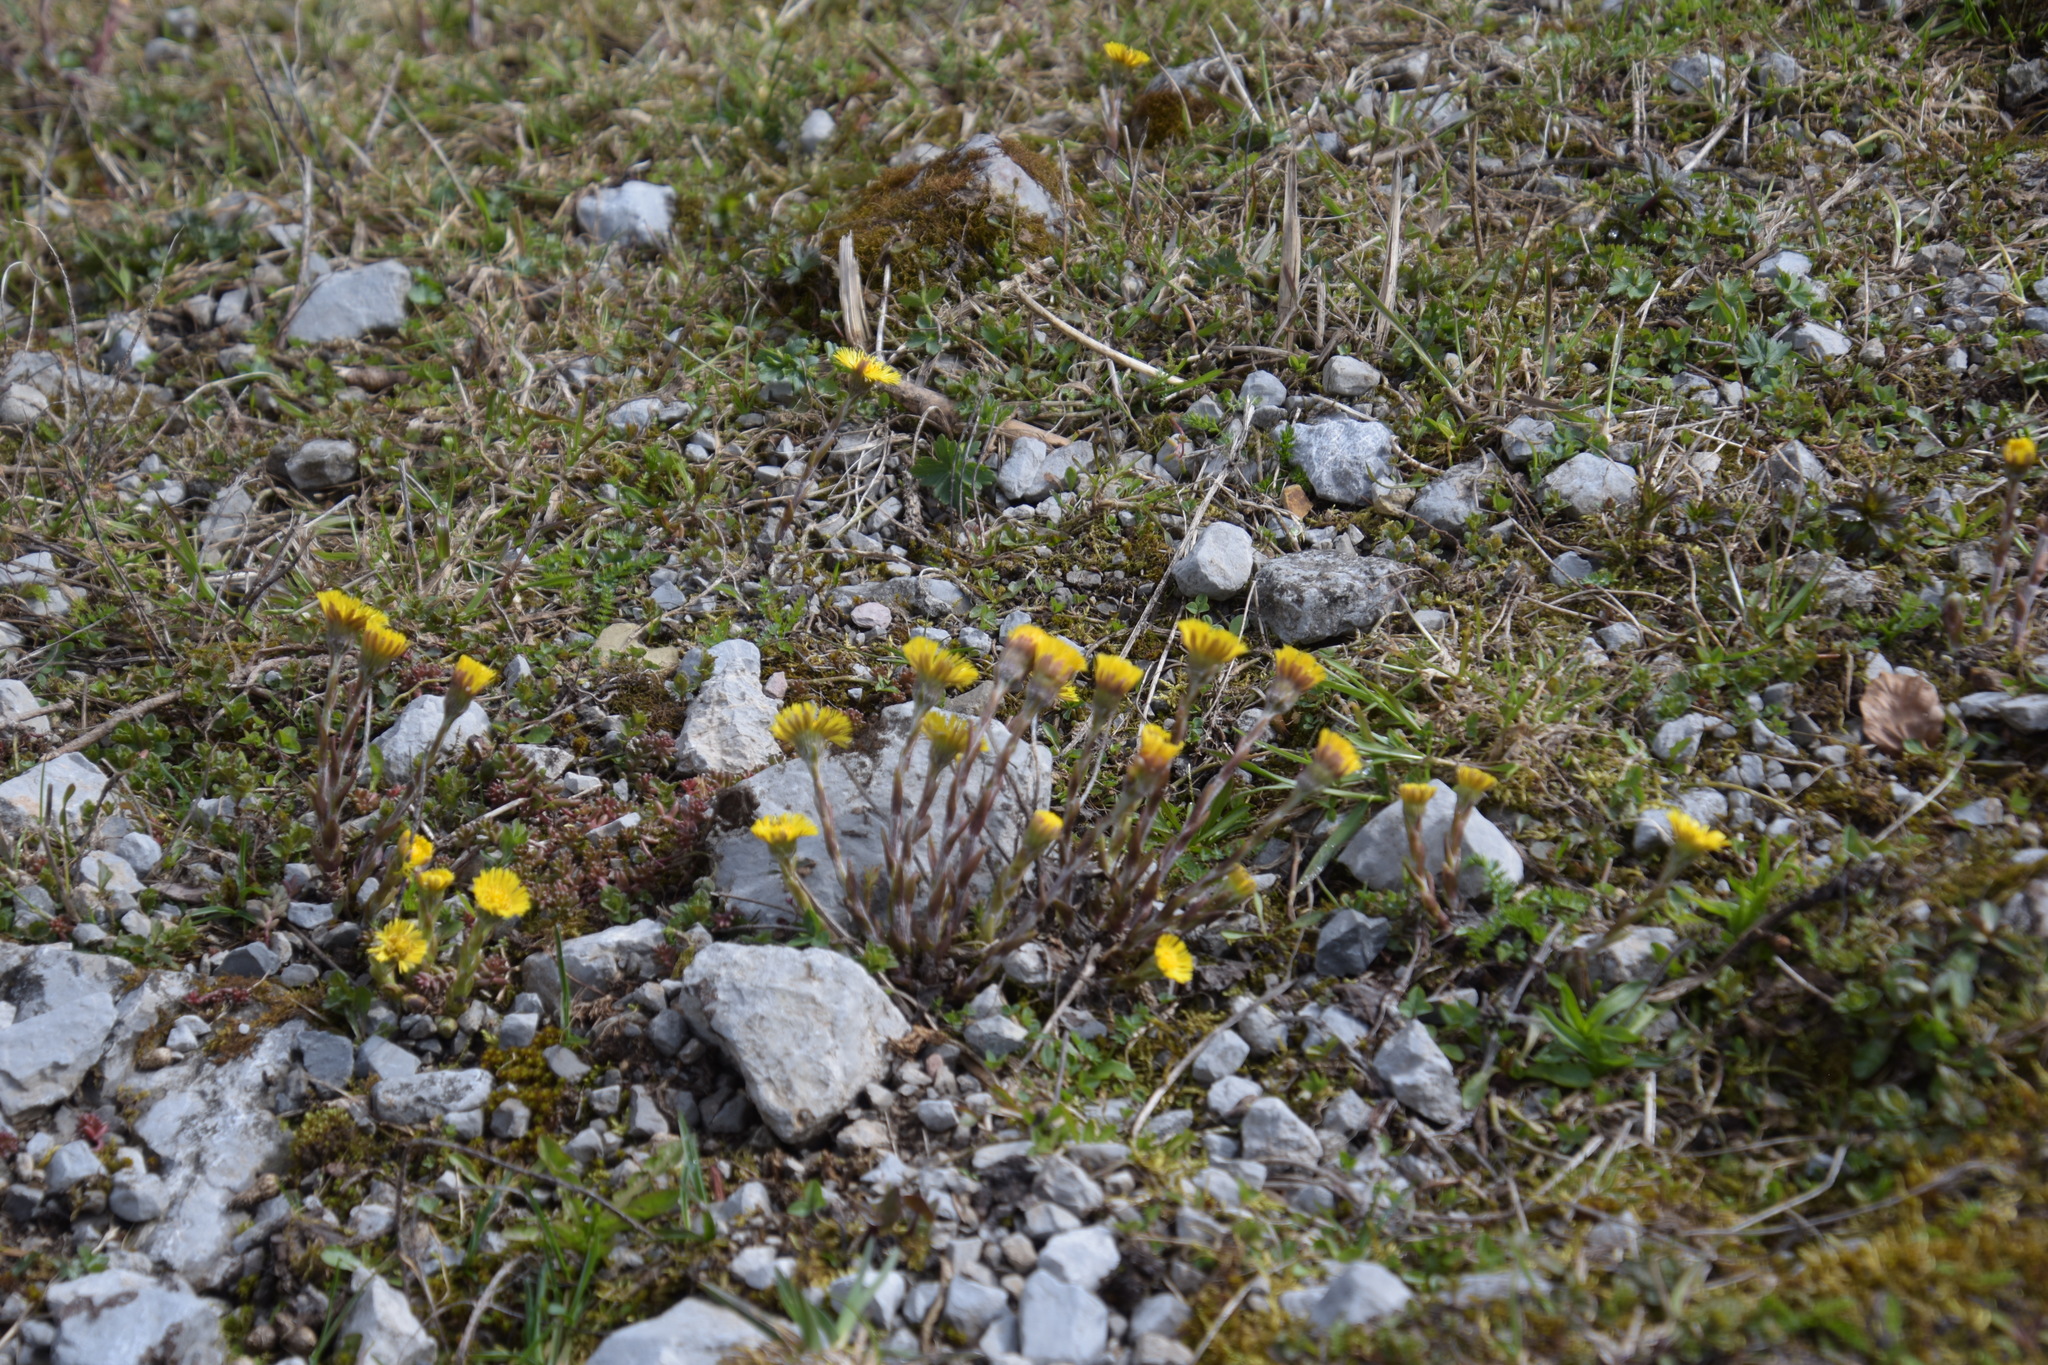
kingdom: Plantae
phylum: Tracheophyta
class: Magnoliopsida
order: Asterales
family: Asteraceae
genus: Tussilago
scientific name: Tussilago farfara
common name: Coltsfoot
